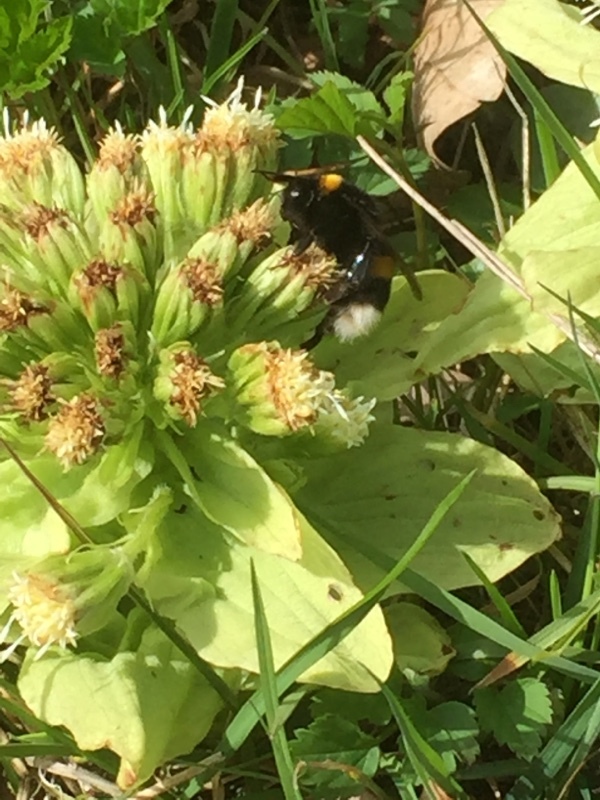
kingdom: Plantae
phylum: Tracheophyta
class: Magnoliopsida
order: Asterales
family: Asteraceae
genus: Petasites
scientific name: Petasites japonicus
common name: Giant butterbur
